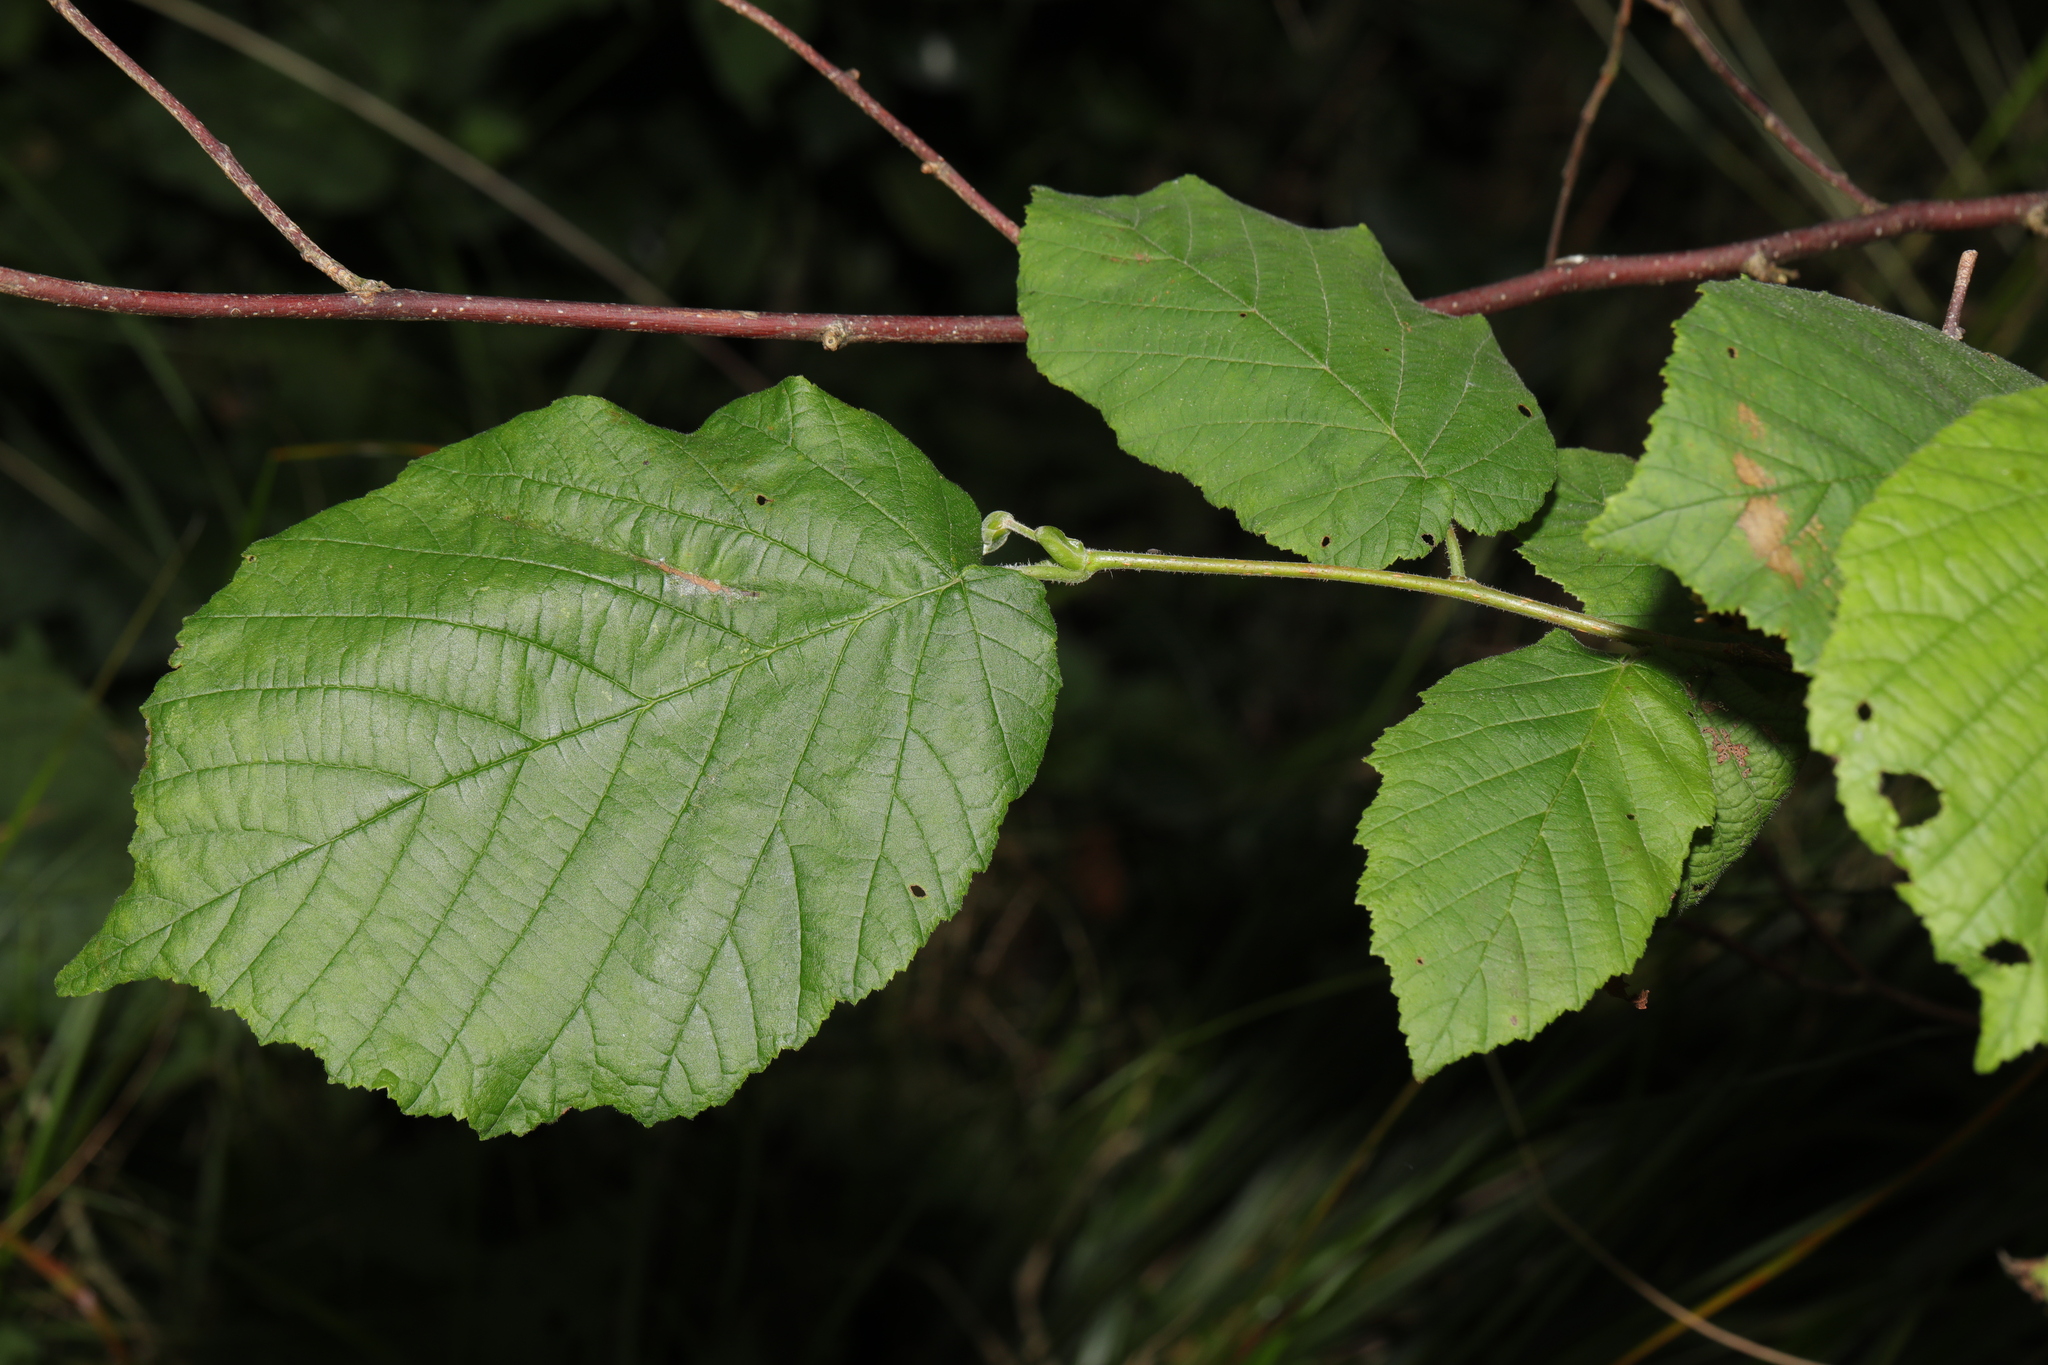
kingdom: Plantae
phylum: Tracheophyta
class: Magnoliopsida
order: Fagales
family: Betulaceae
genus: Corylus
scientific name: Corylus avellana
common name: European hazel
